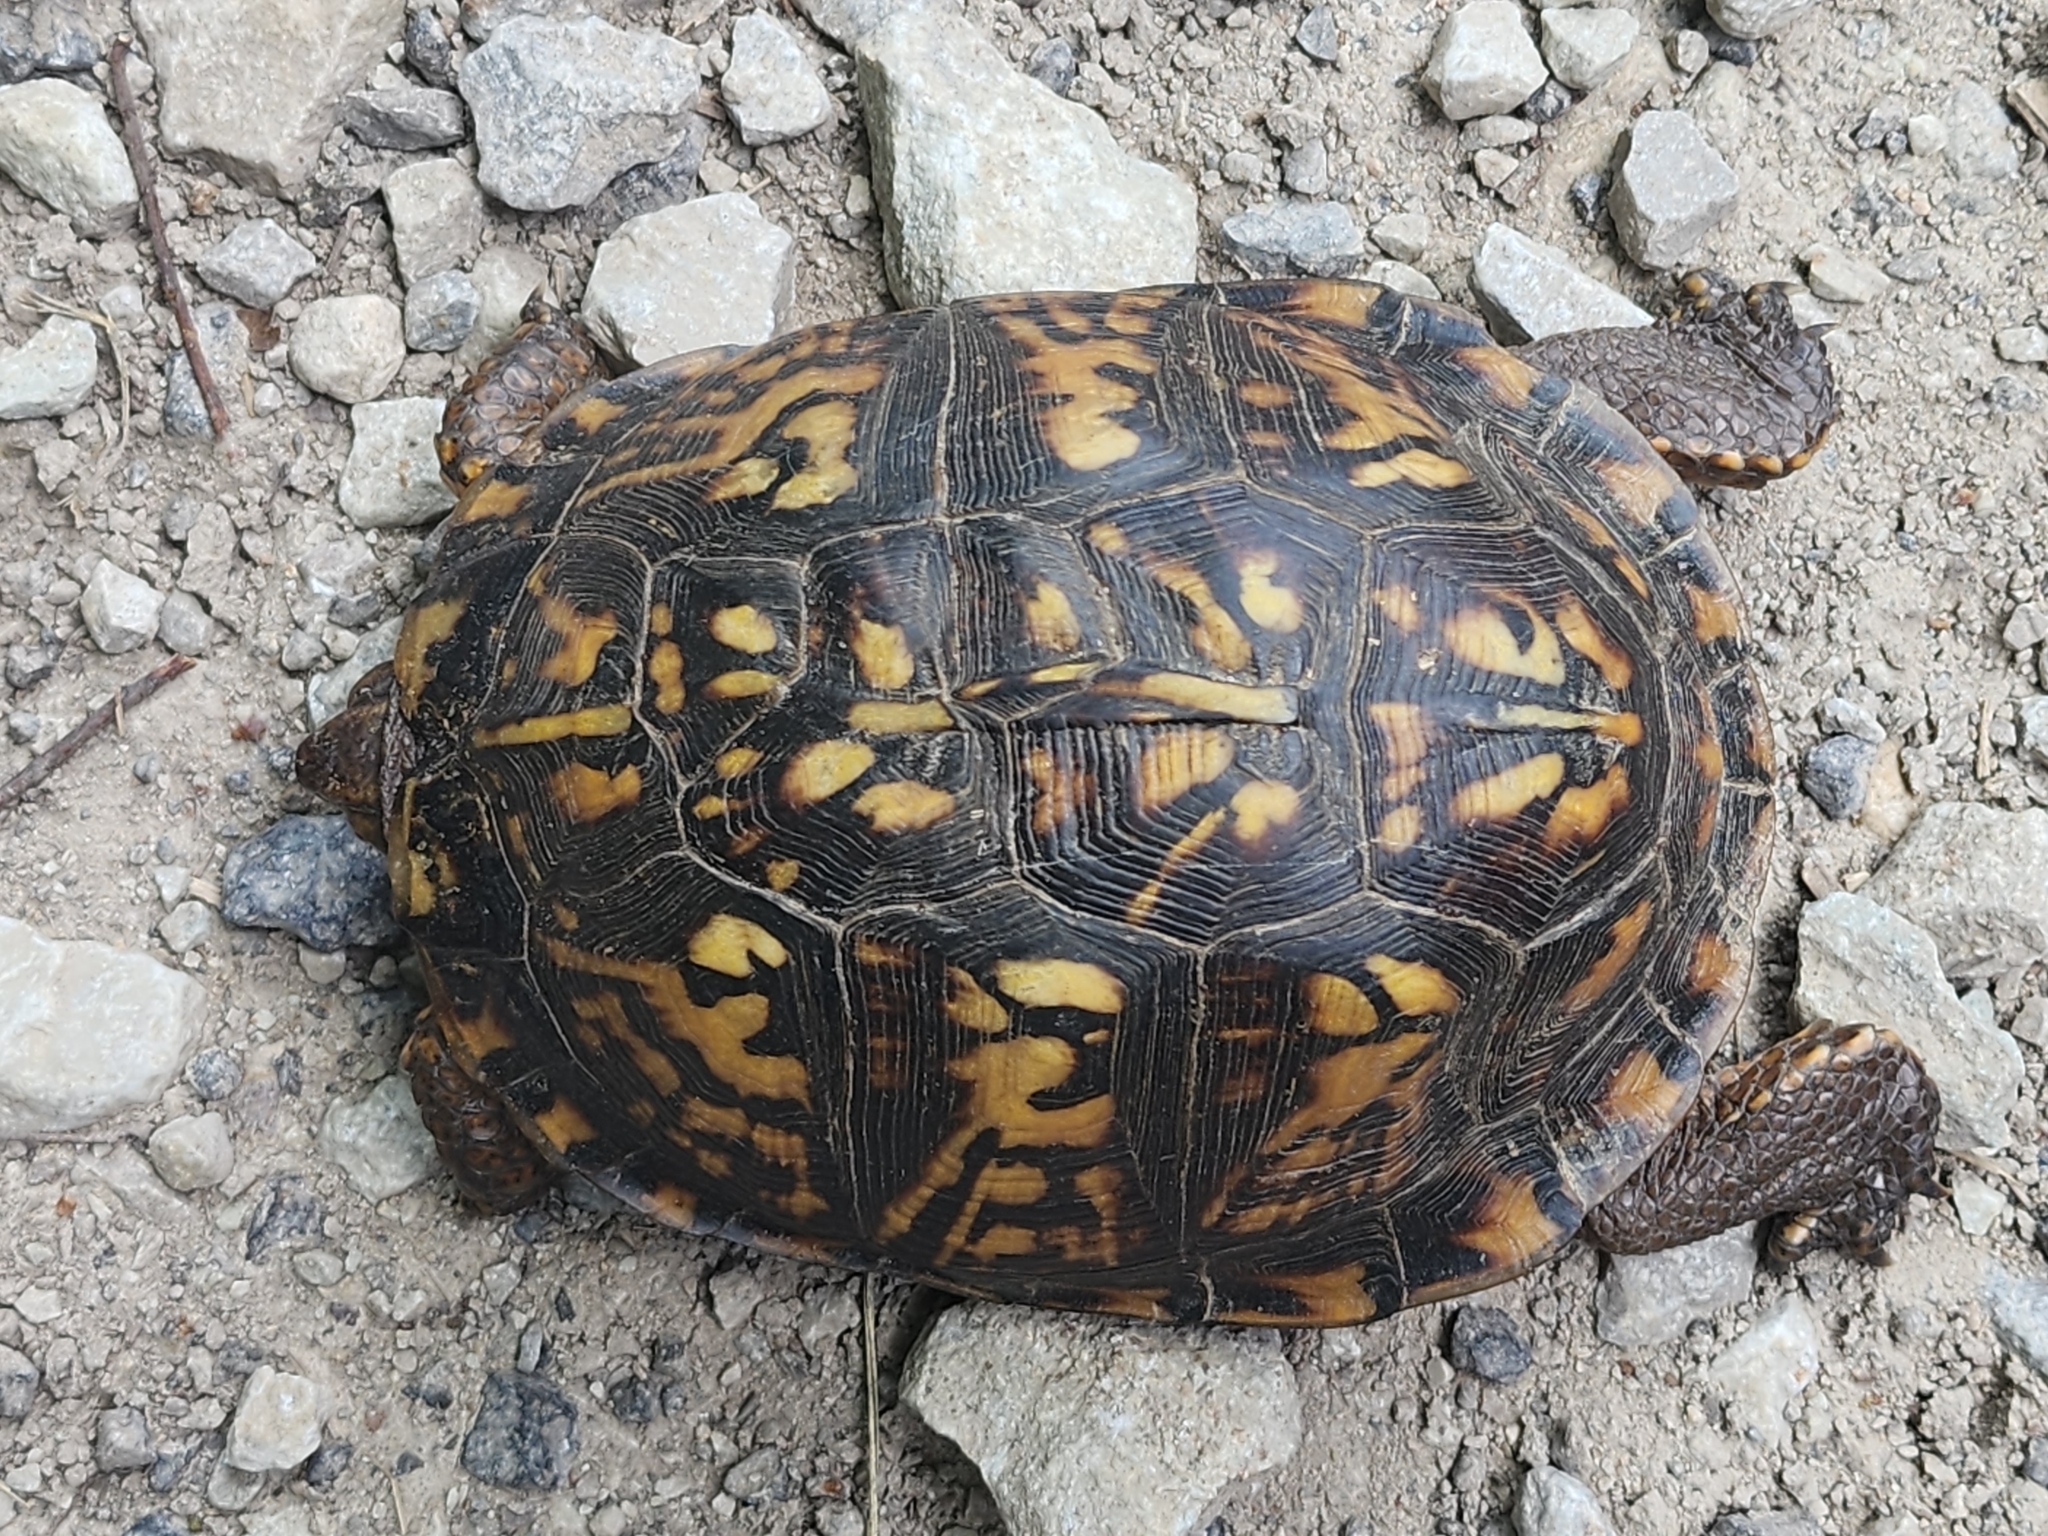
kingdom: Animalia
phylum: Chordata
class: Testudines
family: Emydidae
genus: Terrapene
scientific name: Terrapene carolina
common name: Common box turtle
